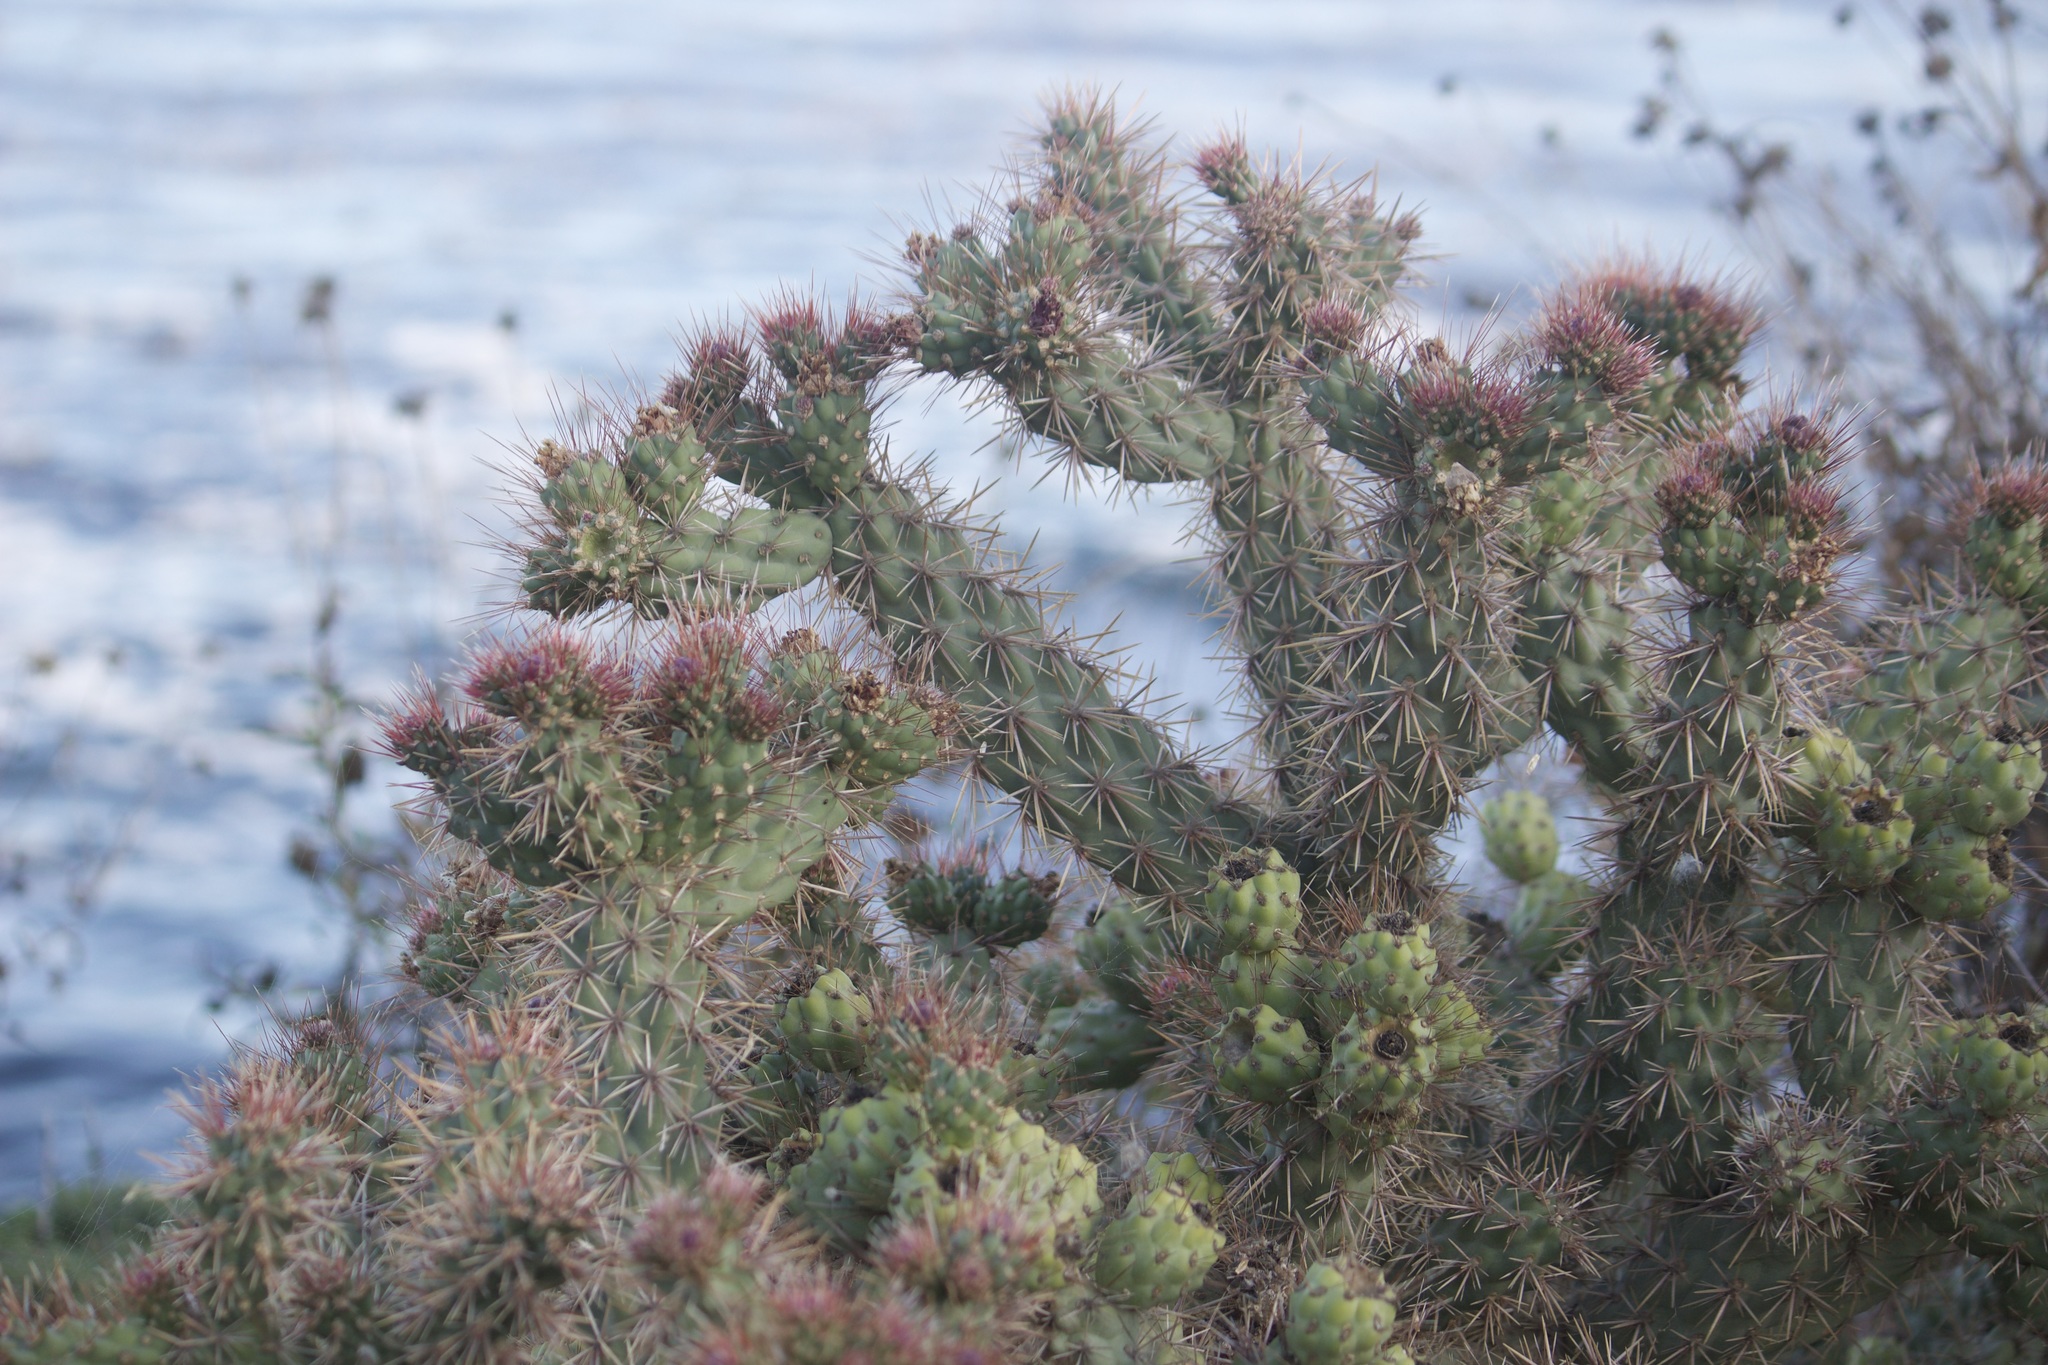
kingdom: Plantae
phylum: Tracheophyta
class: Magnoliopsida
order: Caryophyllales
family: Cactaceae
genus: Cylindropuntia
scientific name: Cylindropuntia prolifera
